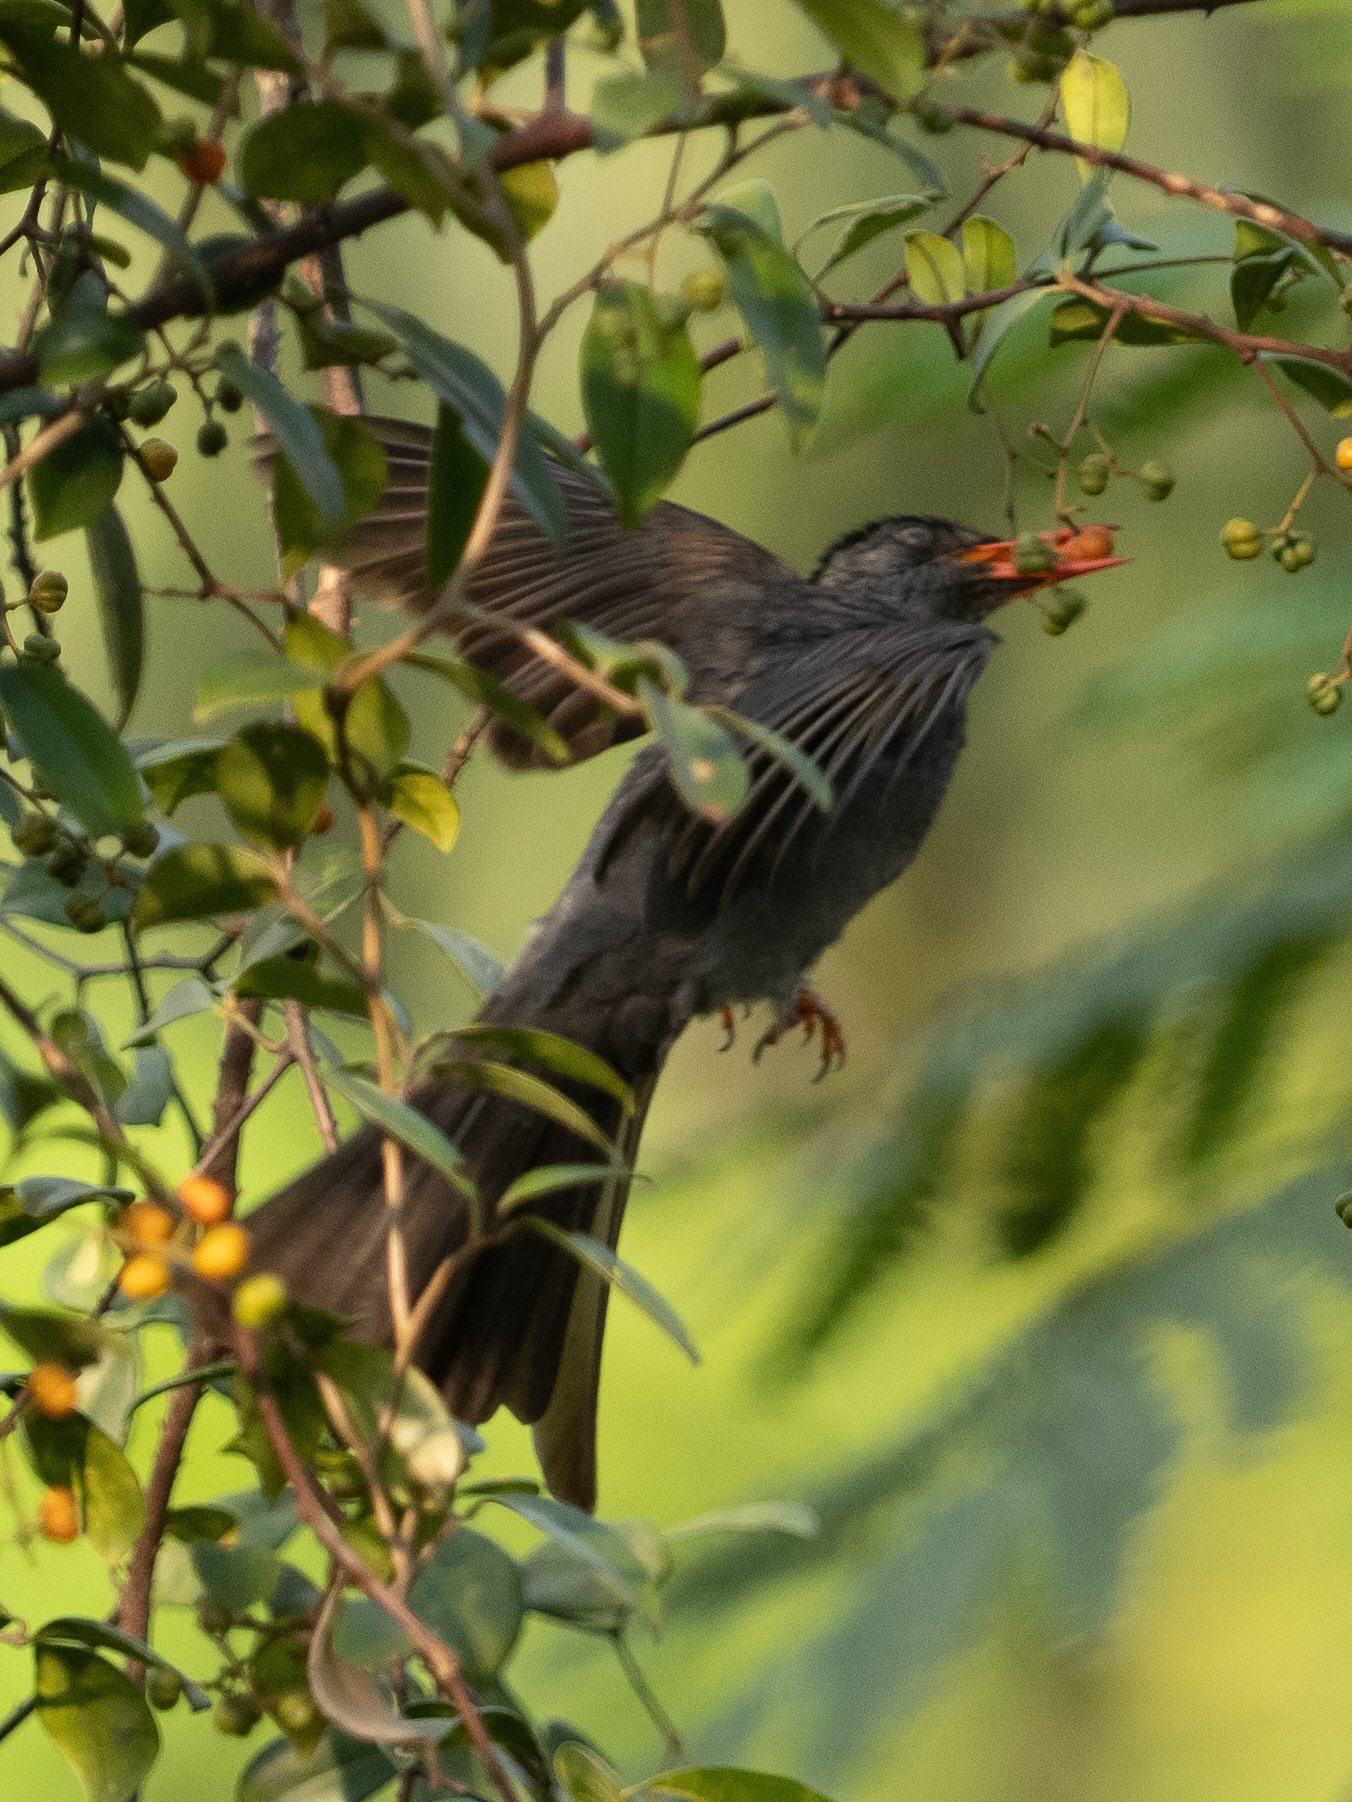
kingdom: Animalia
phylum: Chordata
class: Aves
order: Passeriformes
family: Pycnonotidae
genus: Hypsipetes
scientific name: Hypsipetes ganeesa
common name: Square-tailed bulbul
